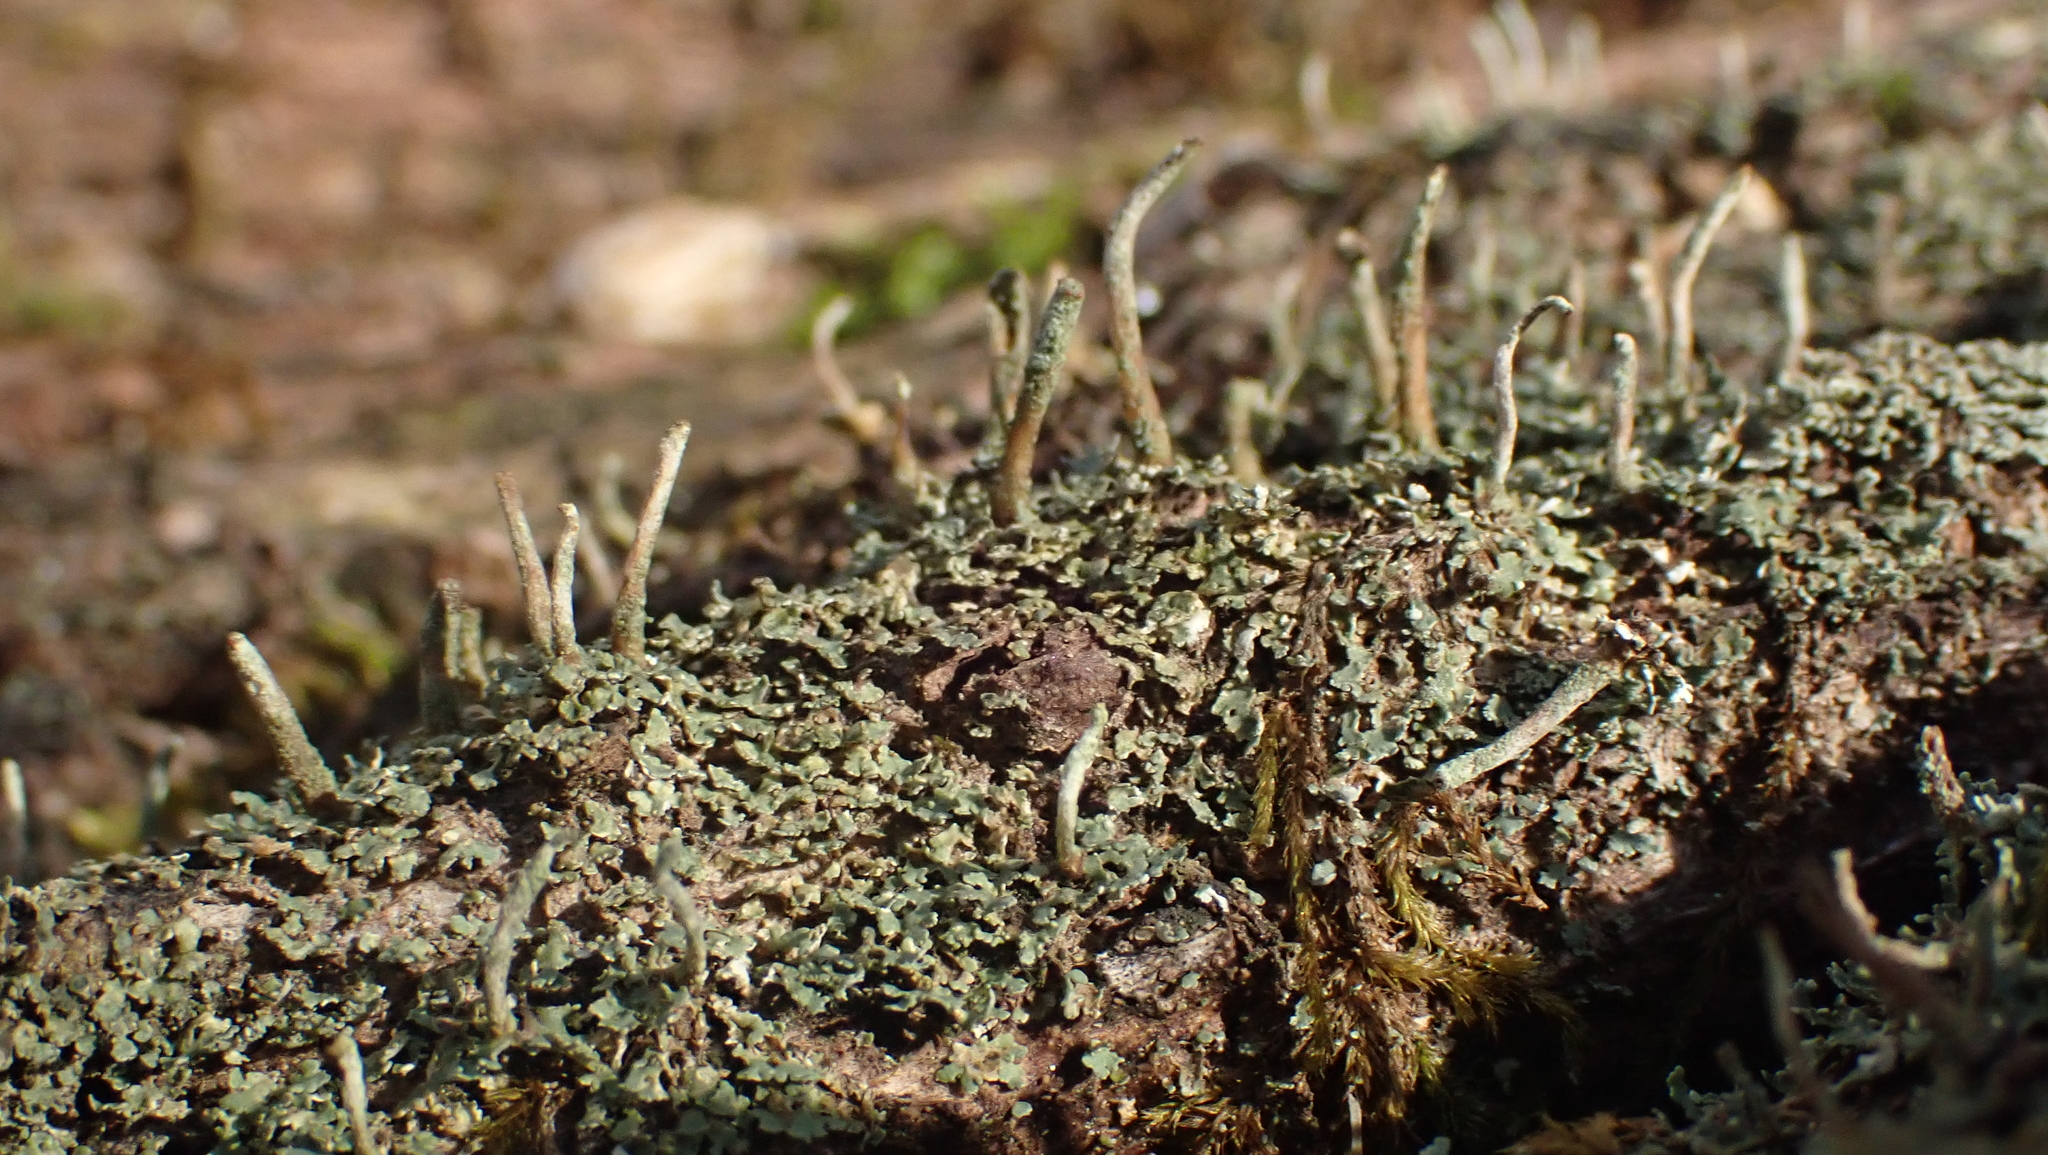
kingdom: Fungi
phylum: Ascomycota
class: Lecanoromycetes
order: Lecanorales
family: Cladoniaceae
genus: Cladonia
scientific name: Cladonia coniocraea
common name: Common powderhorn
